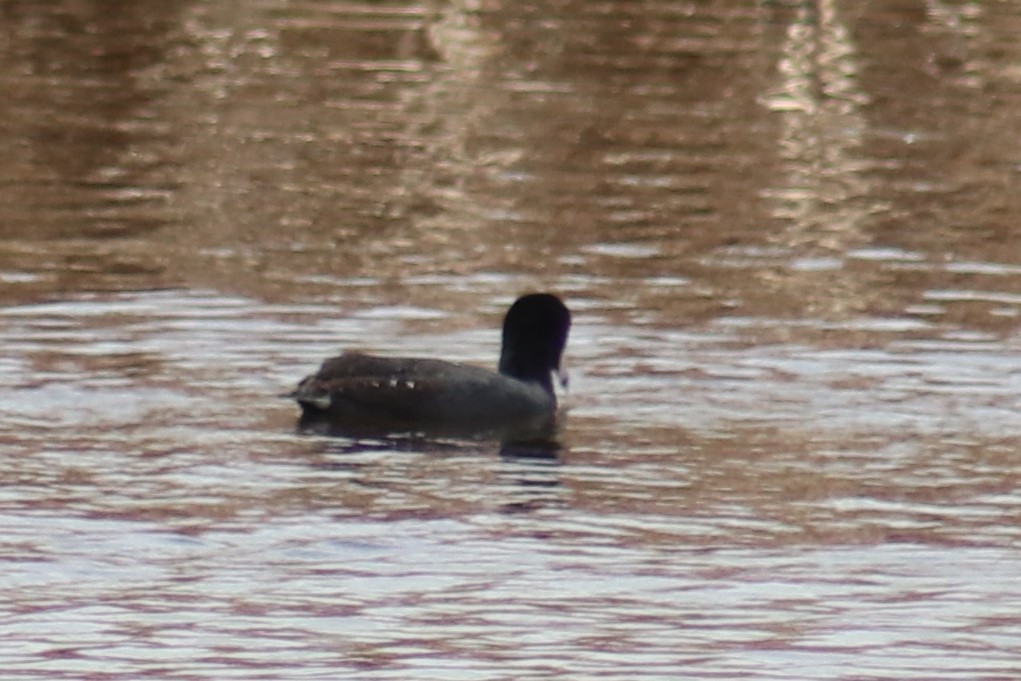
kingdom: Animalia
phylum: Chordata
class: Aves
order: Gruiformes
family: Rallidae
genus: Fulica
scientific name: Fulica americana
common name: American coot
